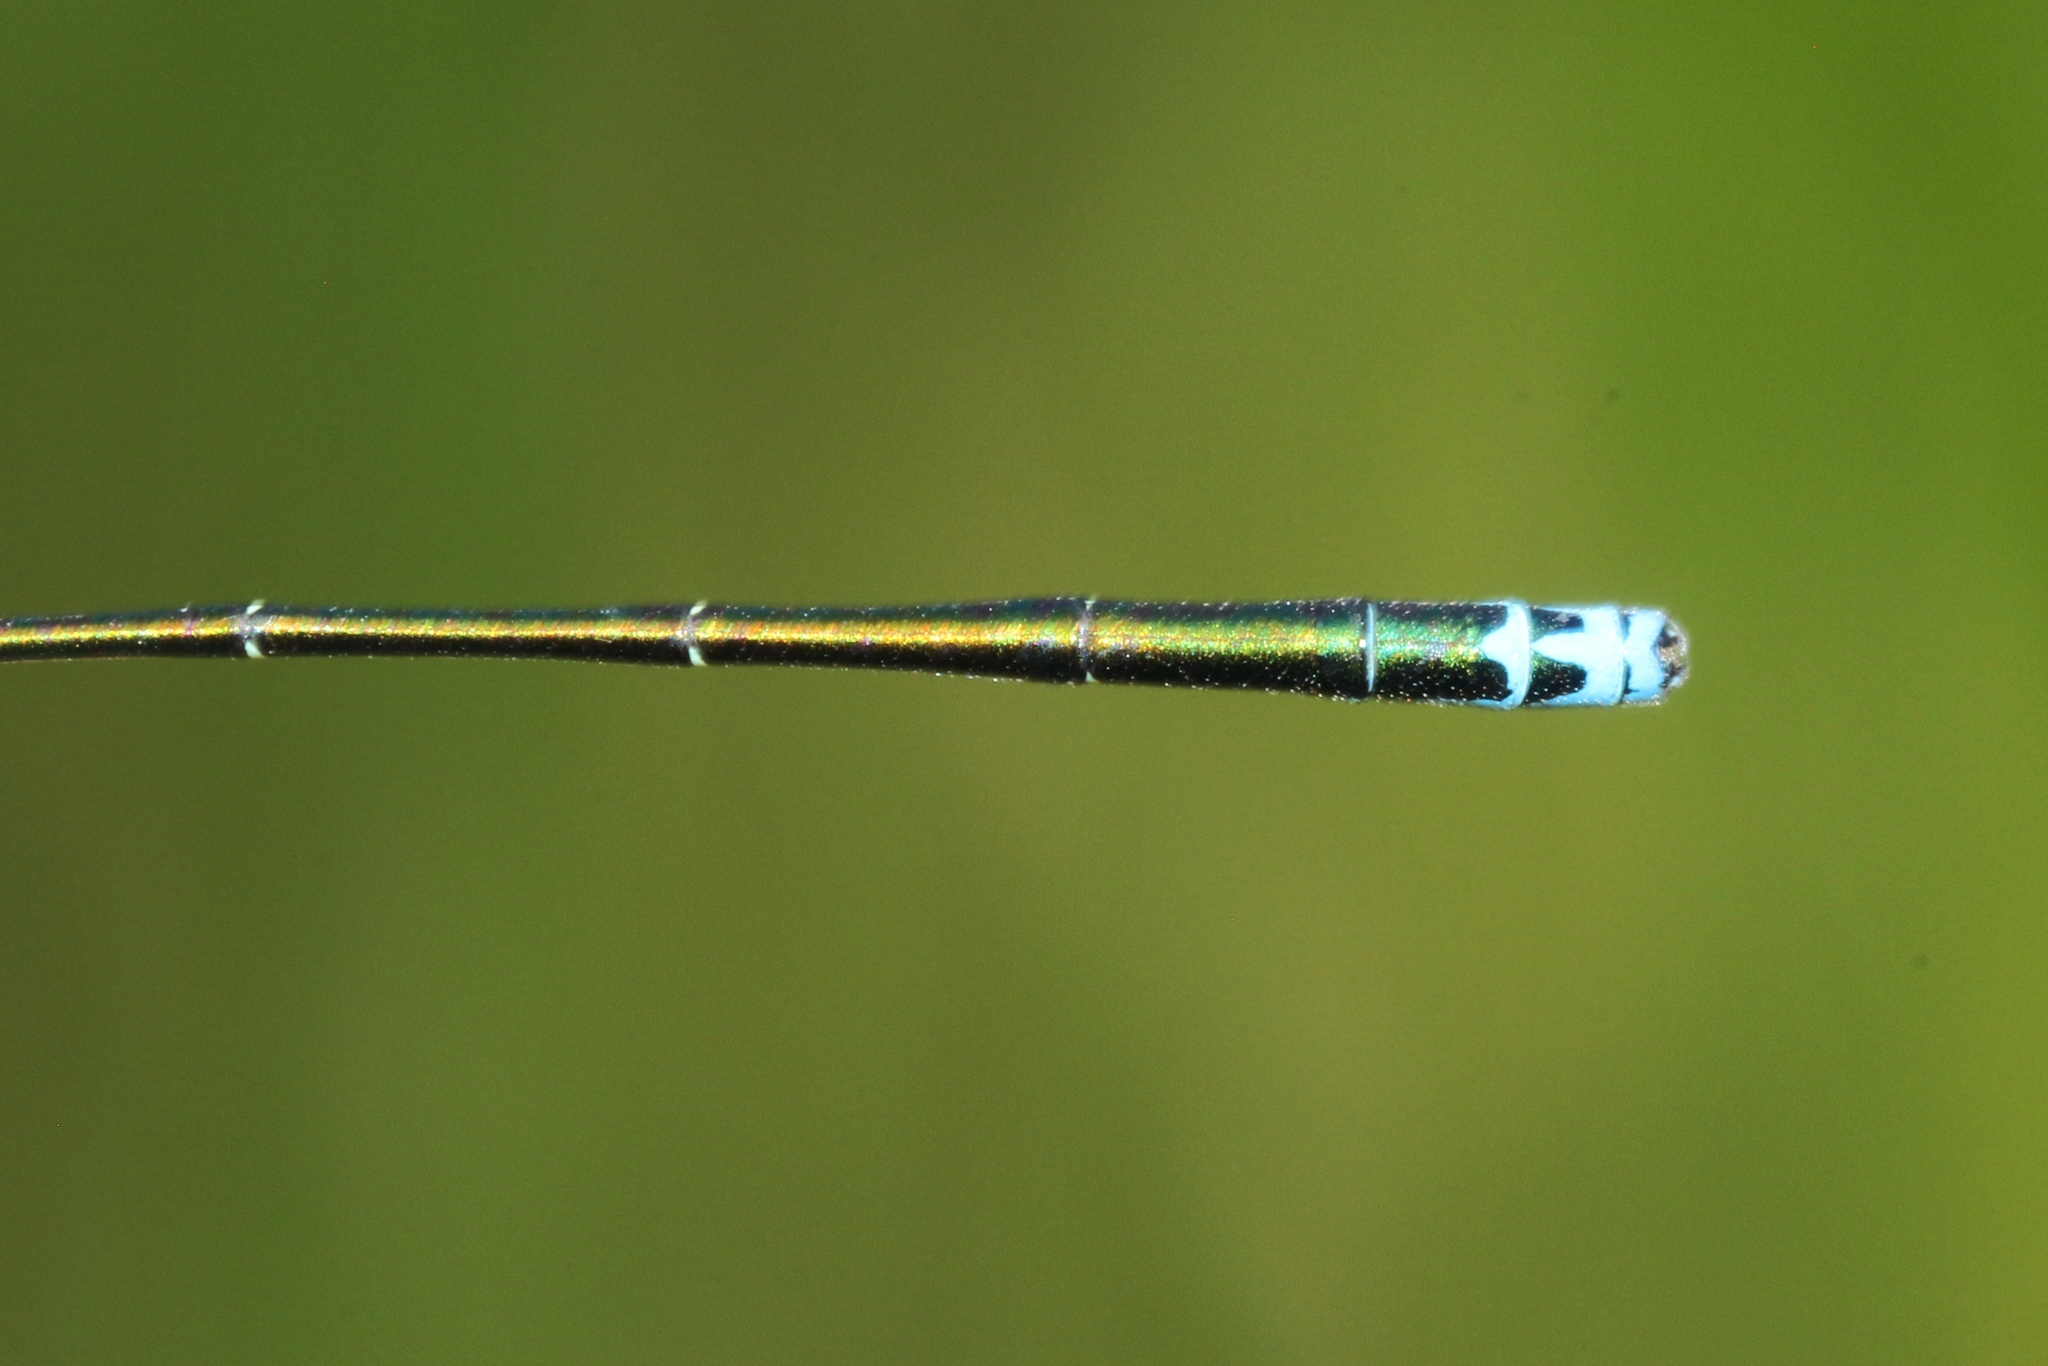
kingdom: Animalia
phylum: Arthropoda
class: Insecta
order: Odonata
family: Coenagrionidae
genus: Nehalennia
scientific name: Nehalennia irene
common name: Sedge sprite
